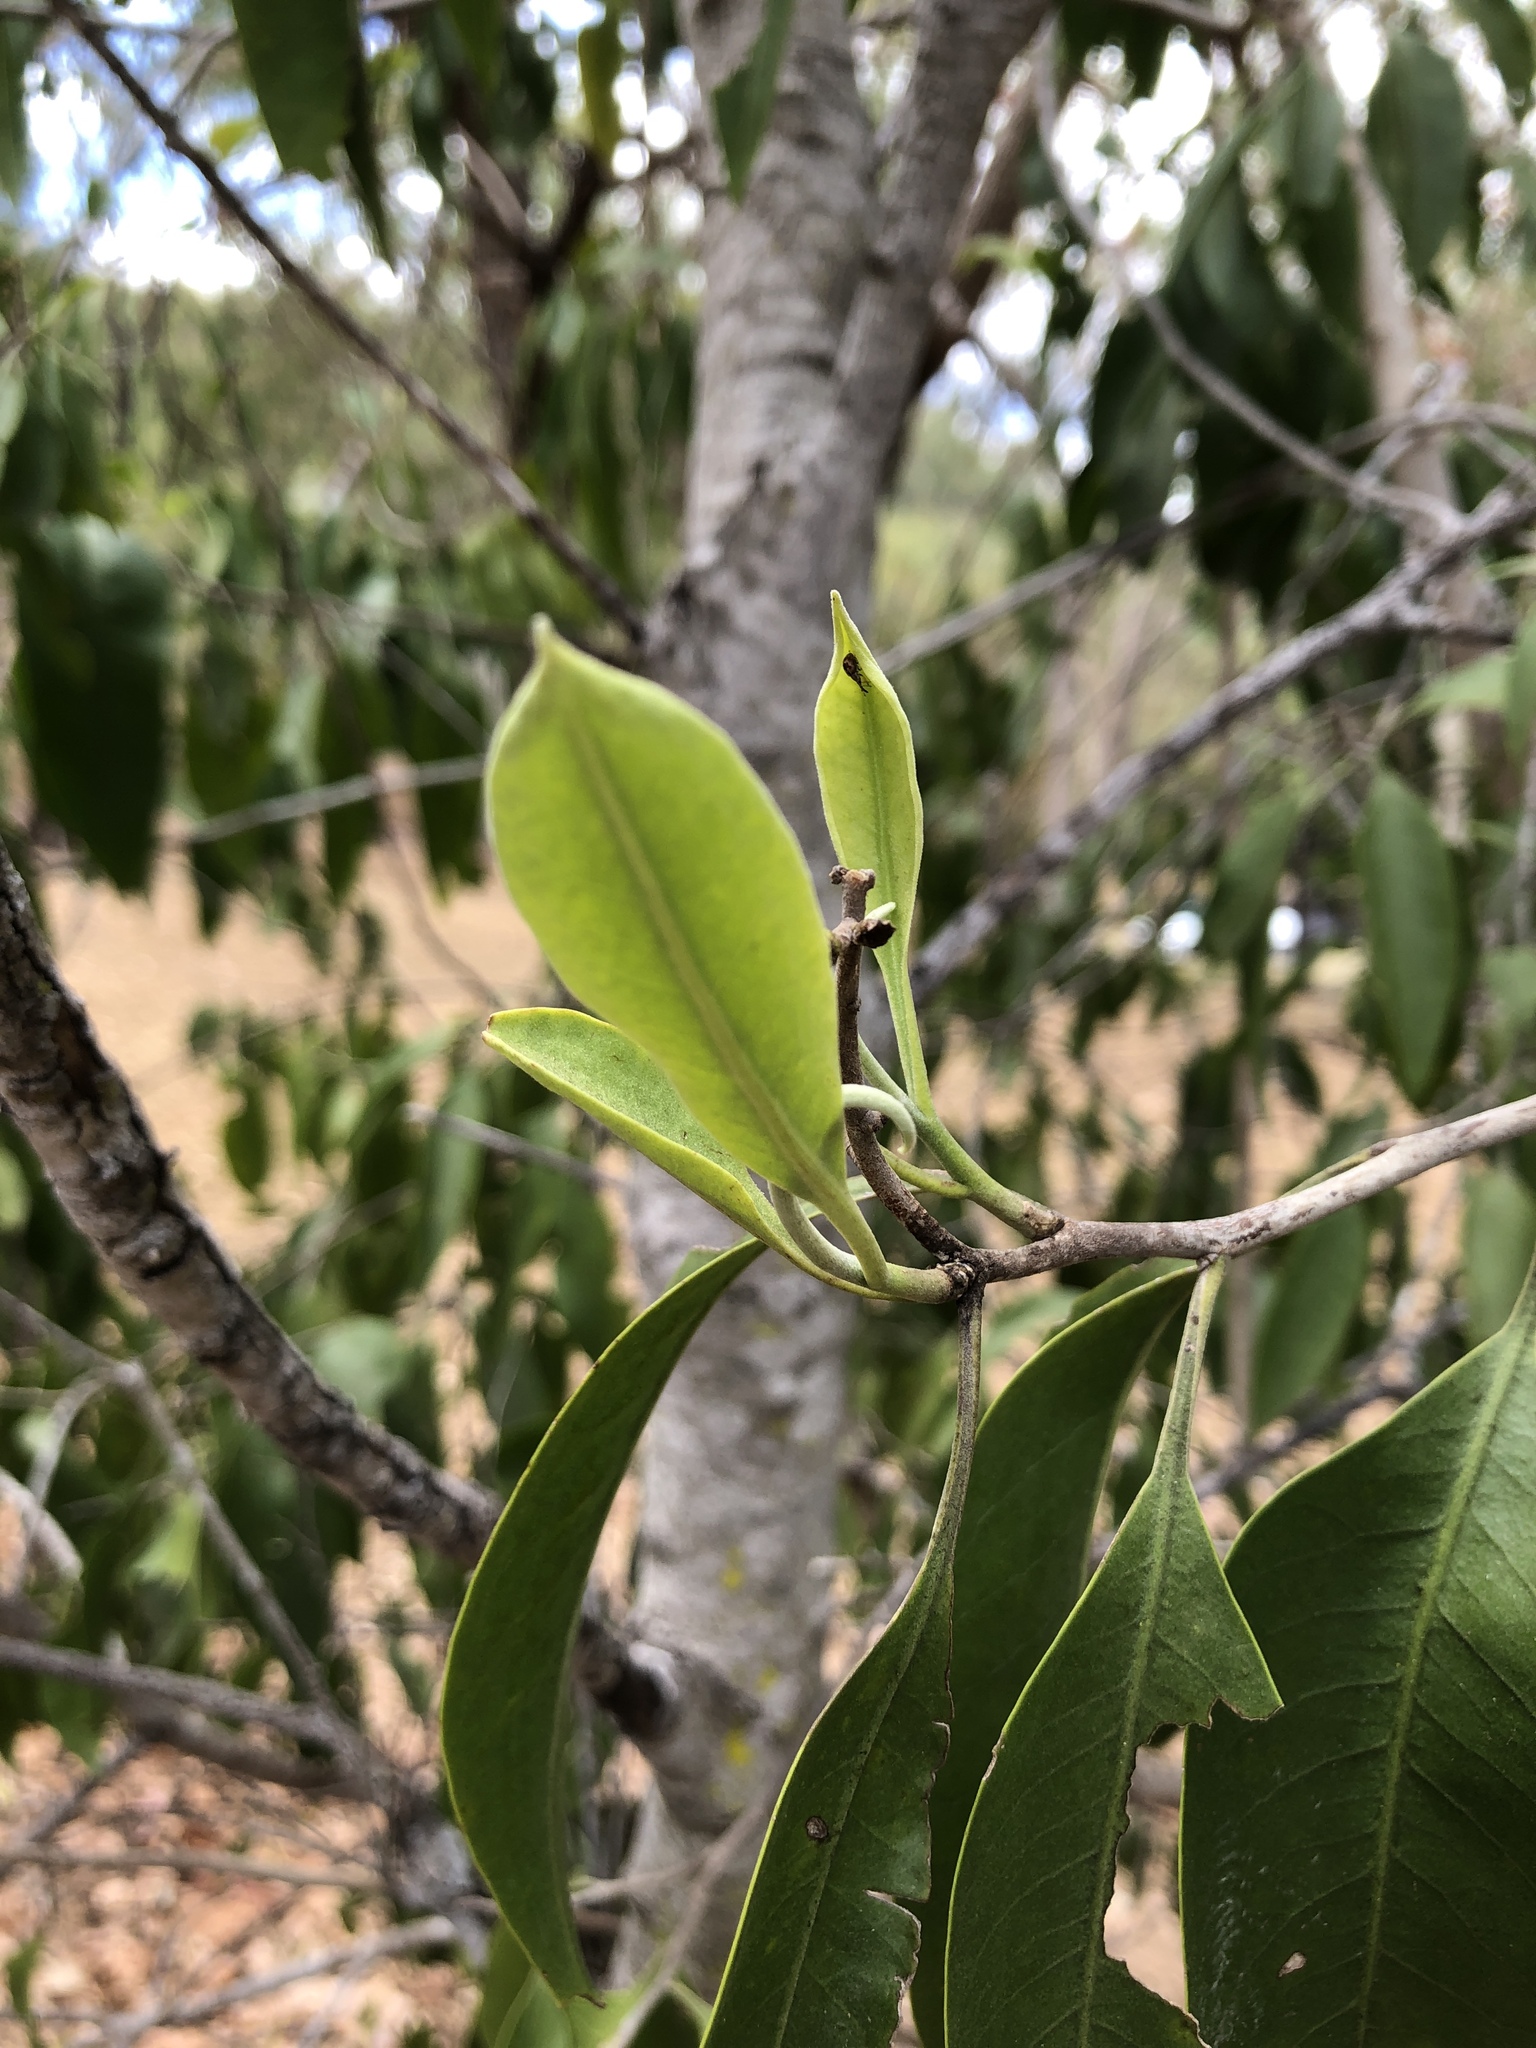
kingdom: Plantae
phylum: Tracheophyta
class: Magnoliopsida
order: Sapindales
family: Rutaceae
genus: Geijera
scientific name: Geijera salicifolia
